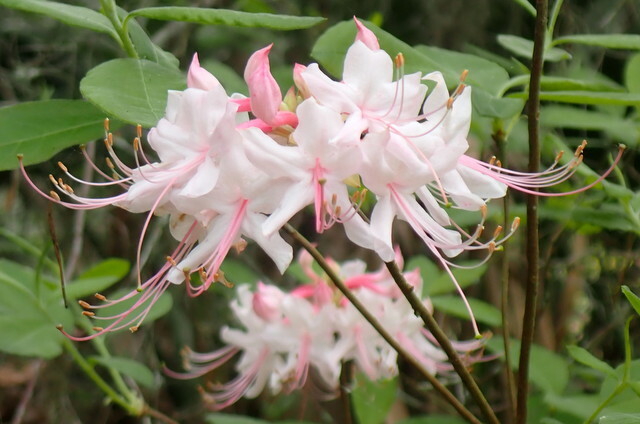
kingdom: Plantae
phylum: Tracheophyta
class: Magnoliopsida
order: Ericales
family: Ericaceae
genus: Rhododendron
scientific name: Rhododendron canescens
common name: Mountain azalea
